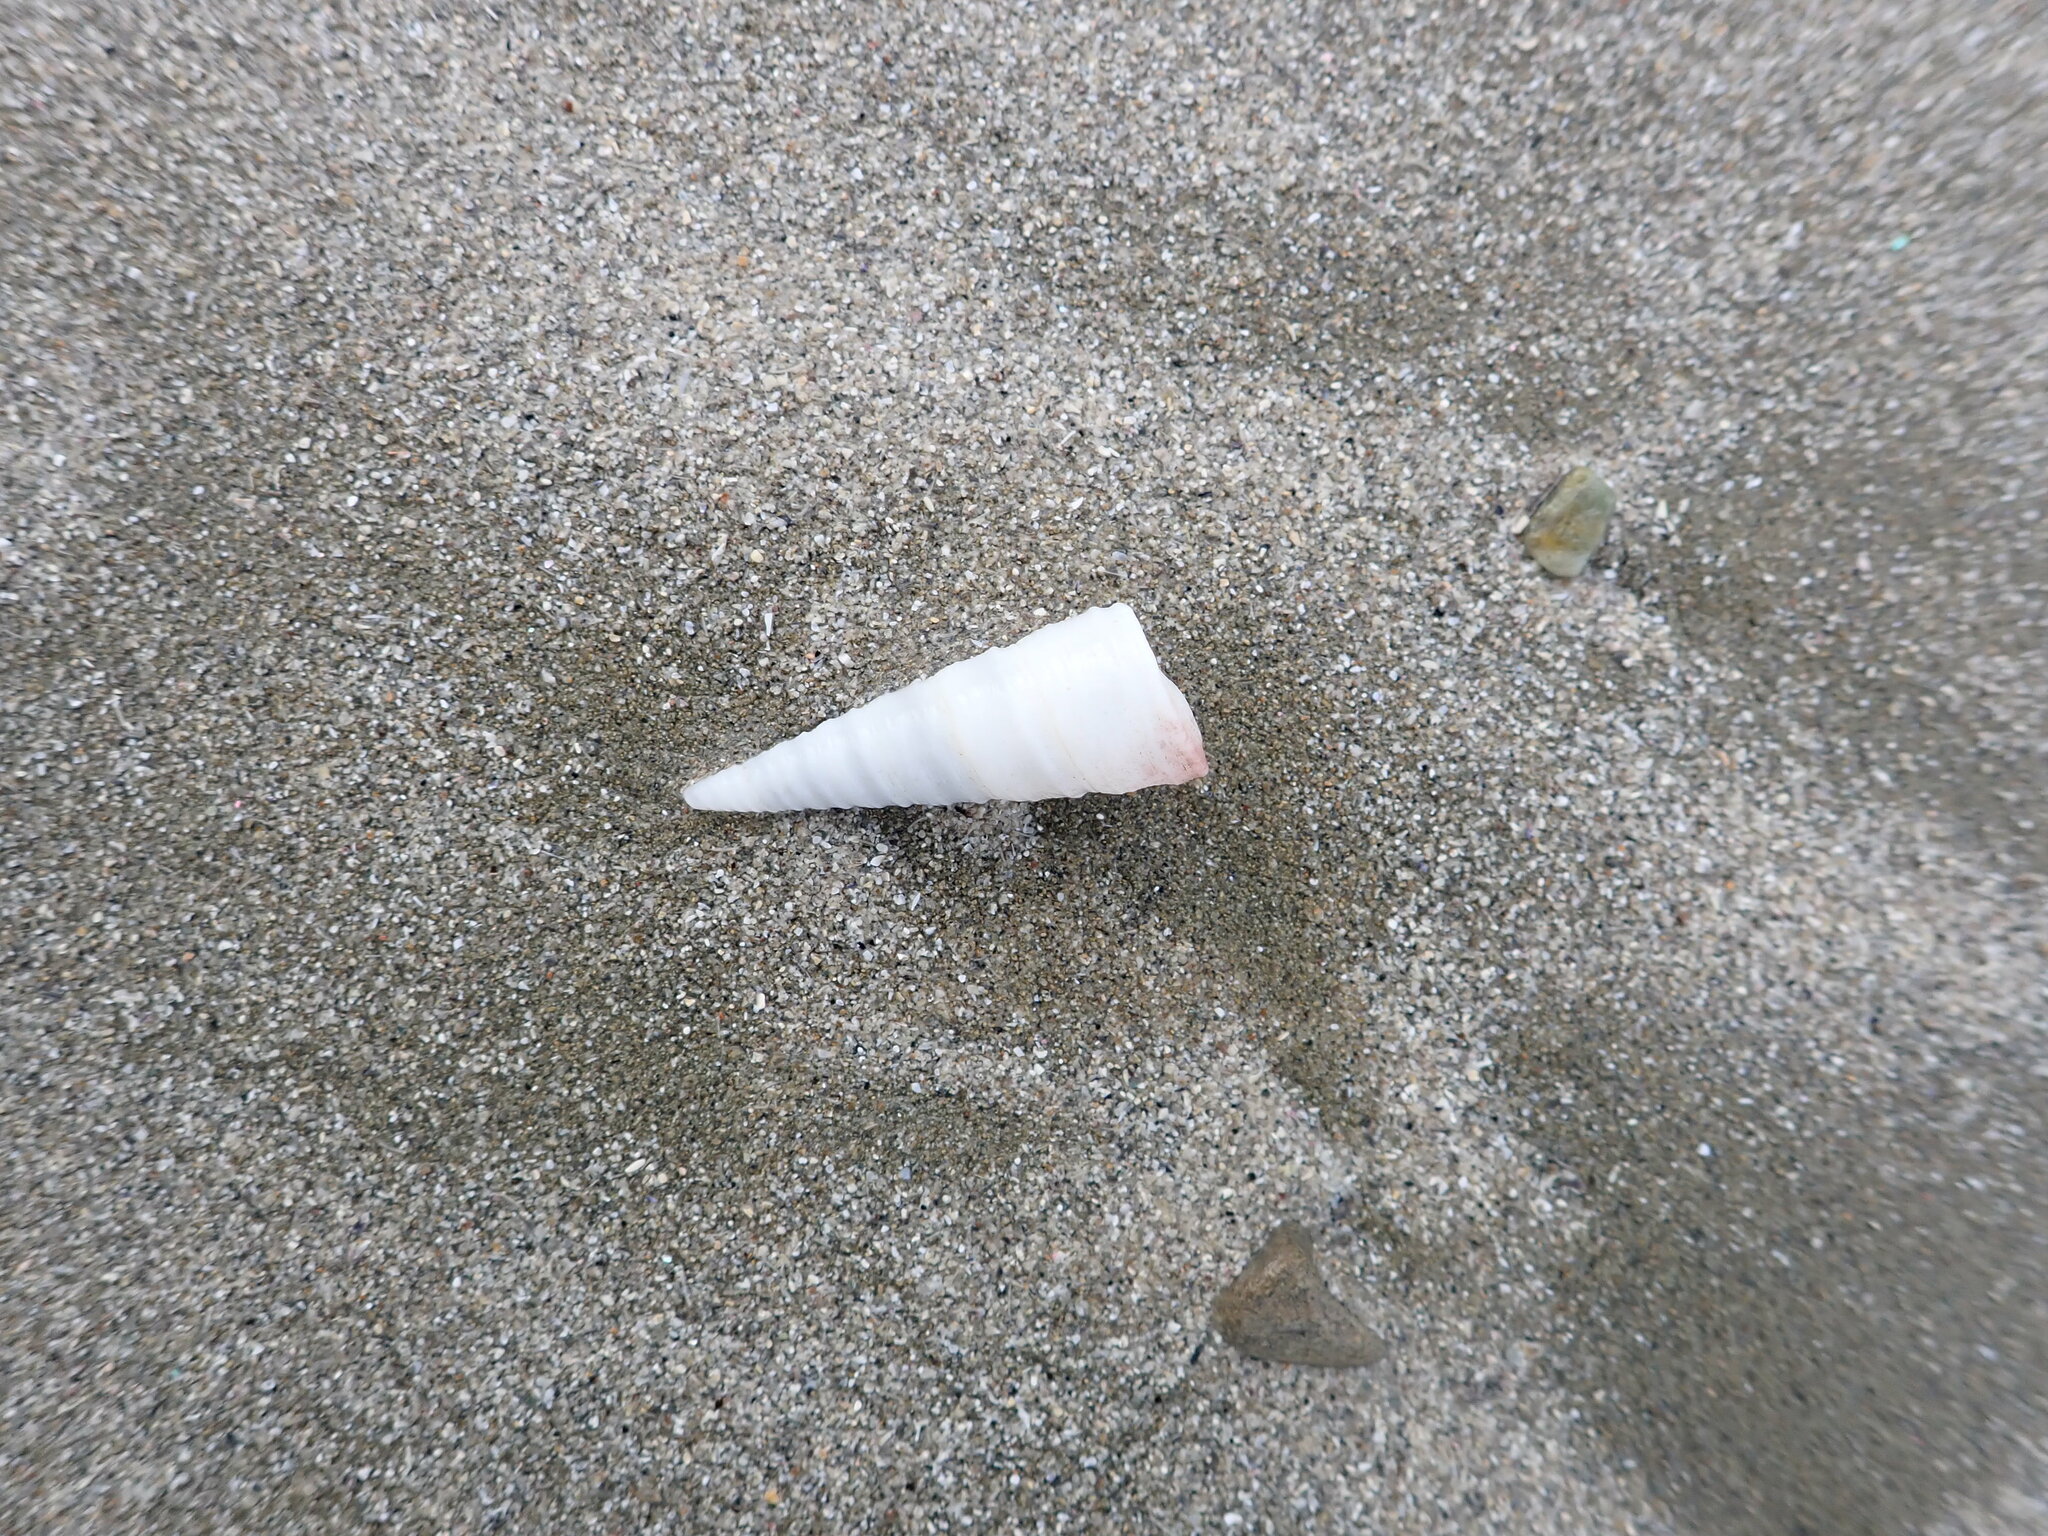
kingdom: Animalia
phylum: Mollusca
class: Gastropoda
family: Turritellidae
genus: Maoricolpus
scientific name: Maoricolpus roseus
